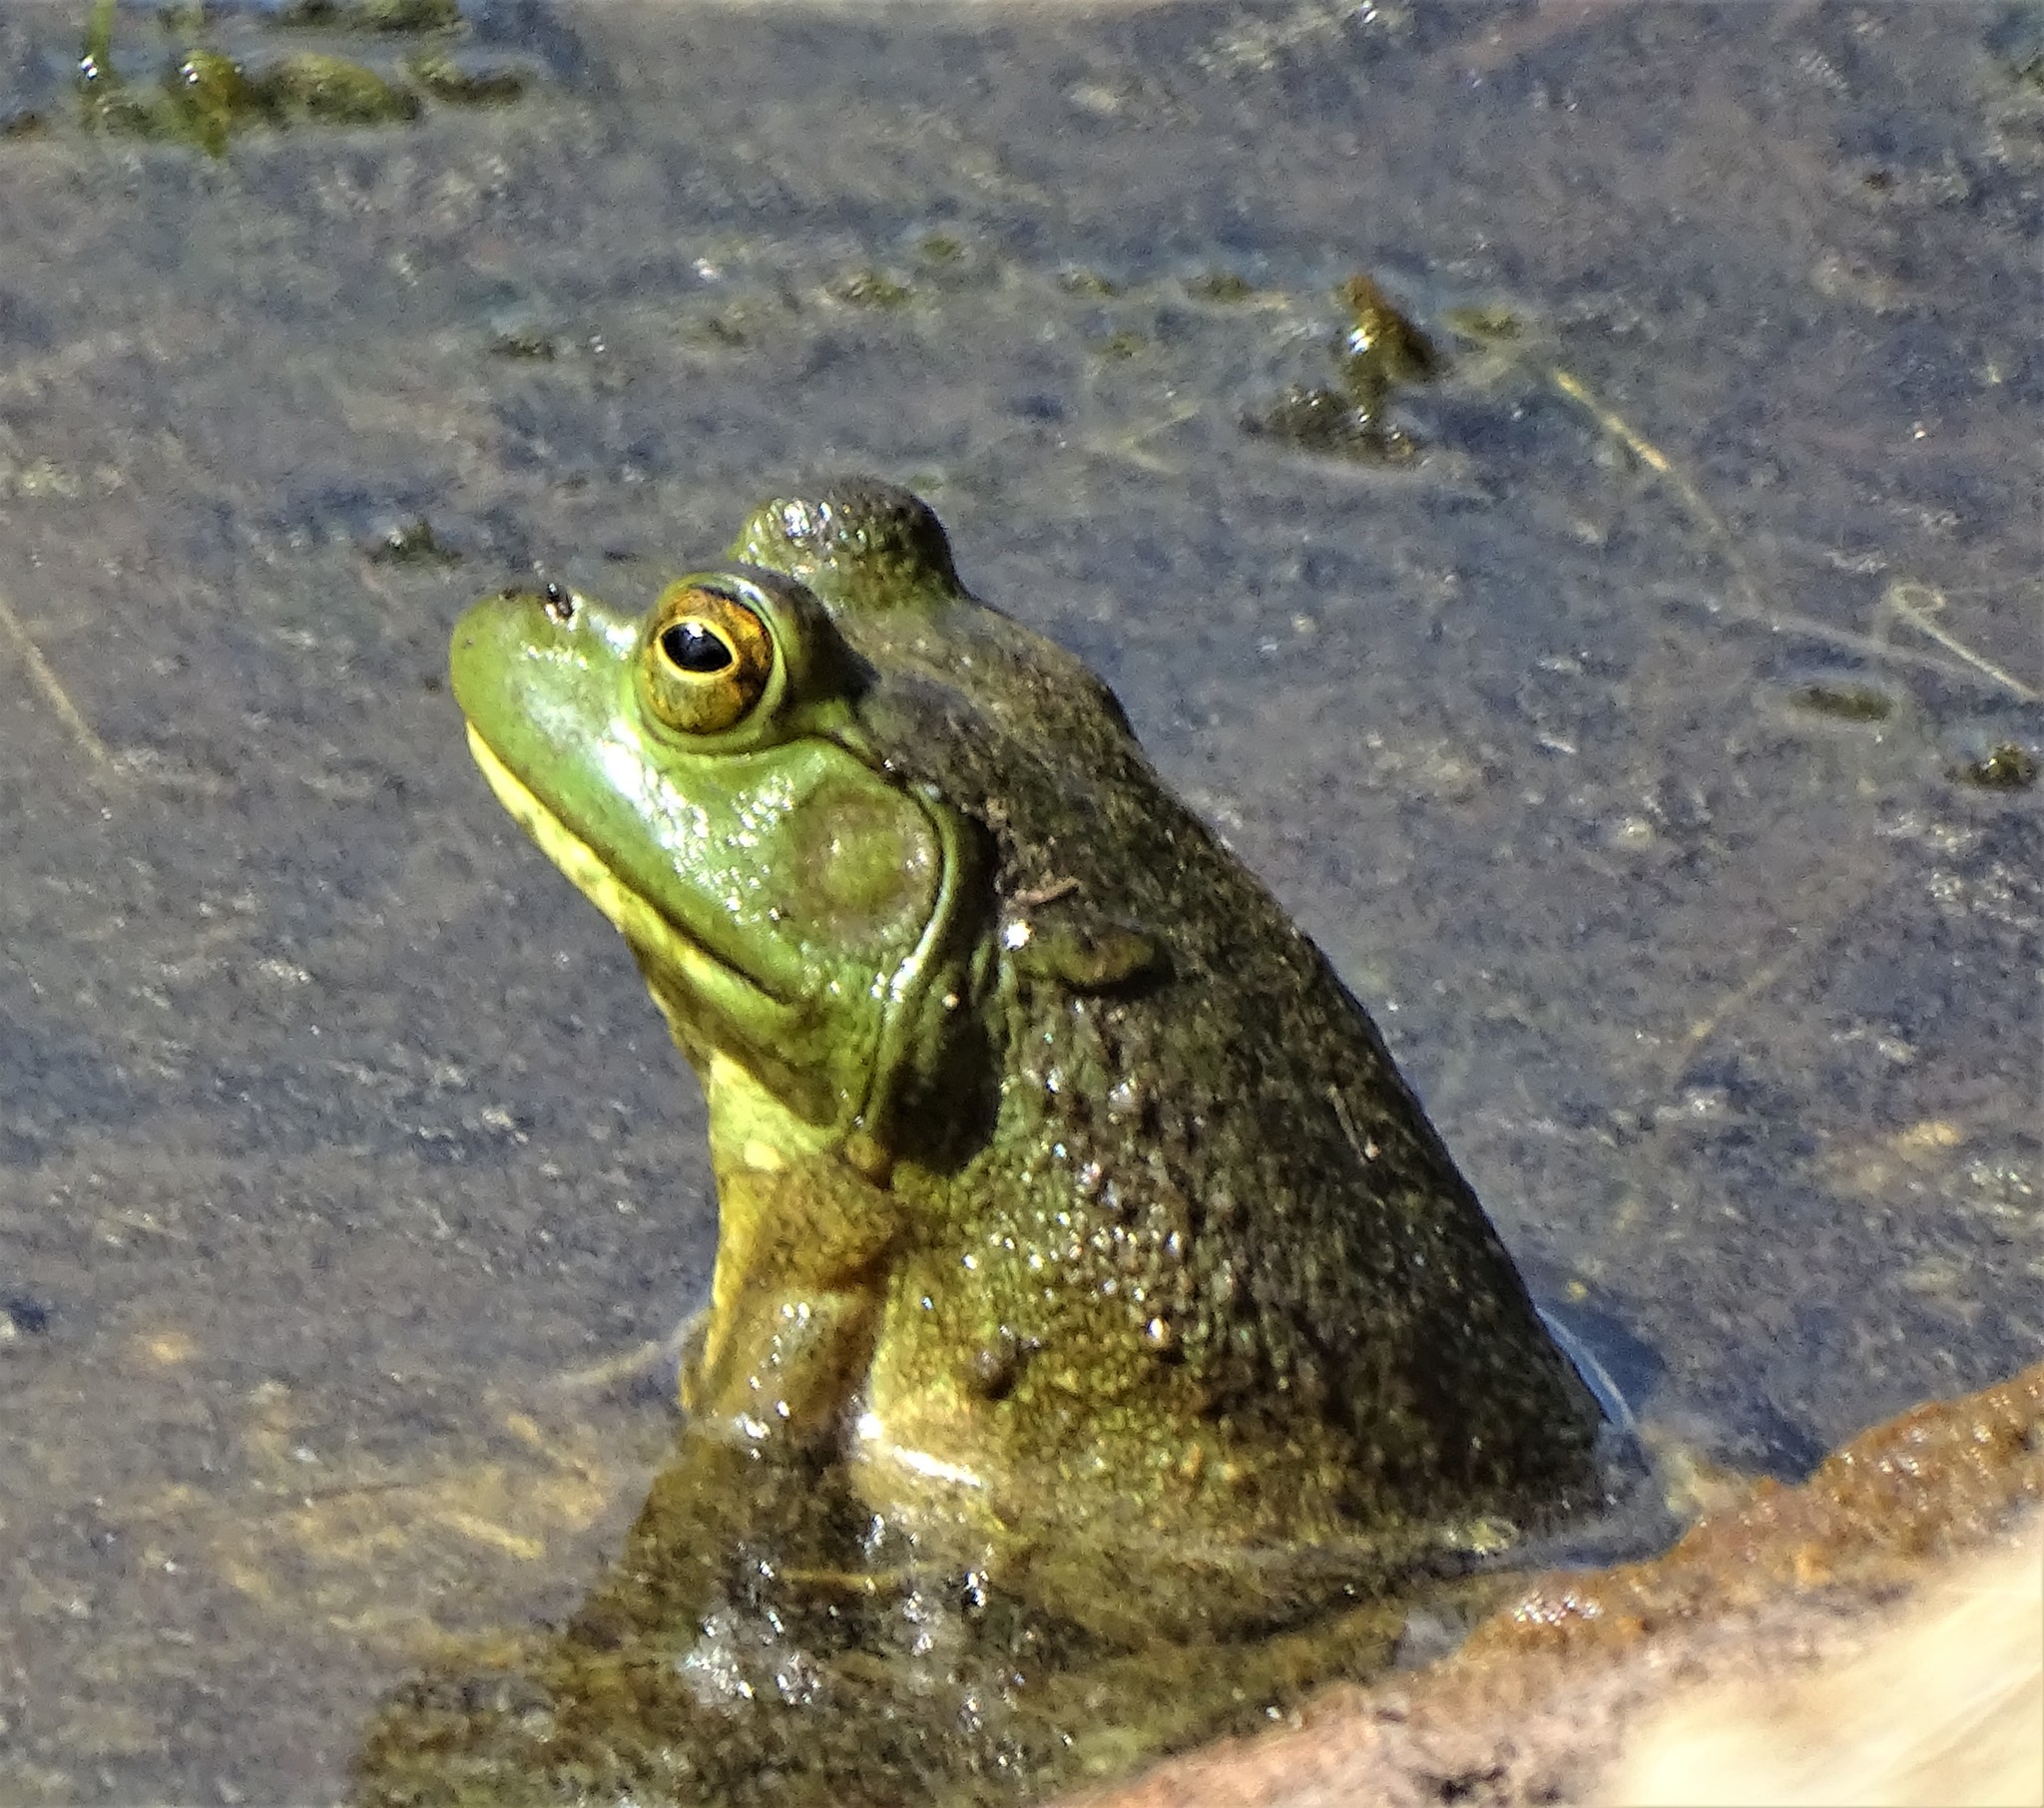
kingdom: Animalia
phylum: Chordata
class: Amphibia
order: Anura
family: Ranidae
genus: Lithobates
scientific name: Lithobates catesbeianus
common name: American bullfrog
